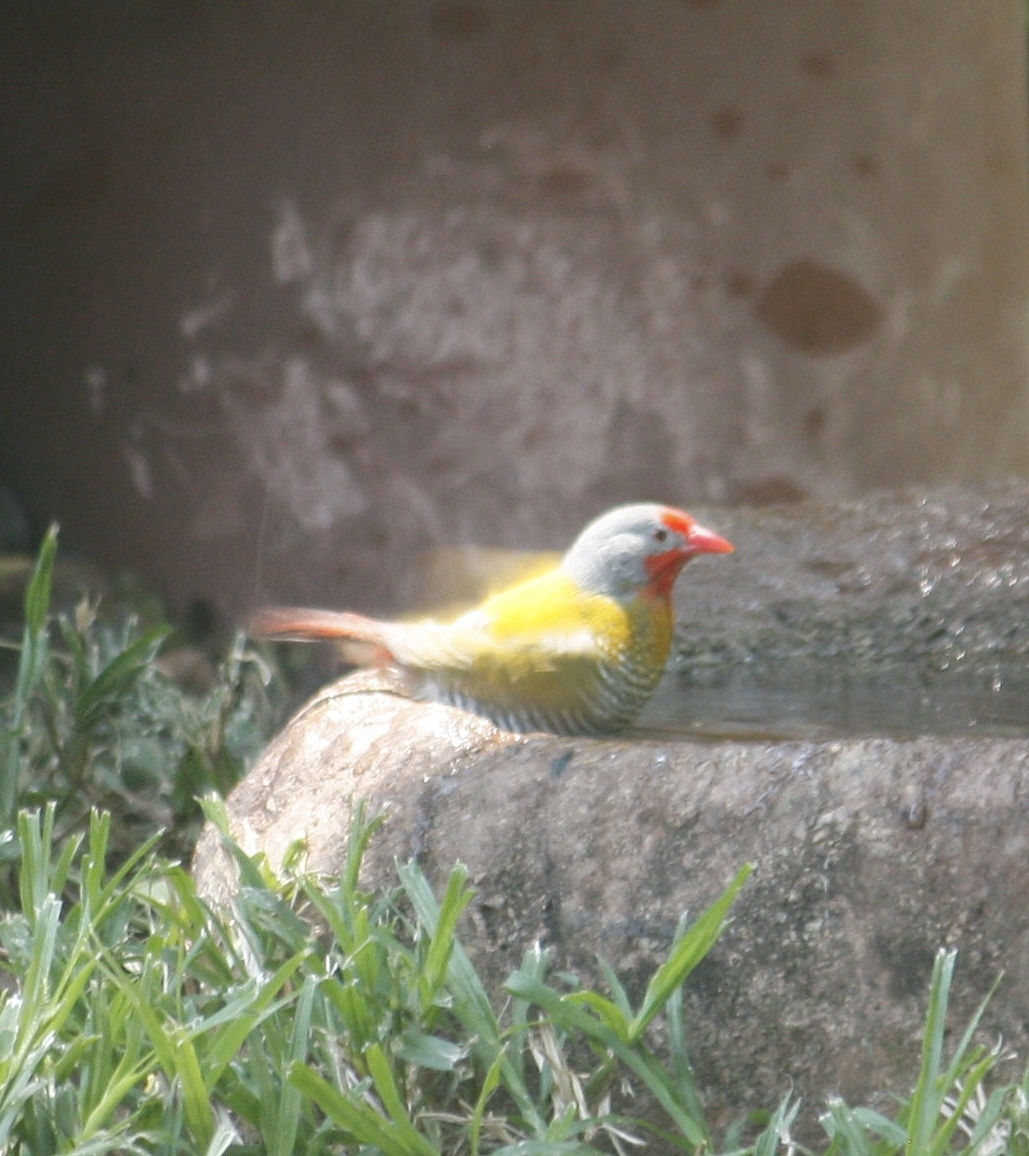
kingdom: Animalia
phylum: Chordata
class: Aves
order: Passeriformes
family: Estrildidae
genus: Pytilia
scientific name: Pytilia melba
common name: Green-winged pytilia
